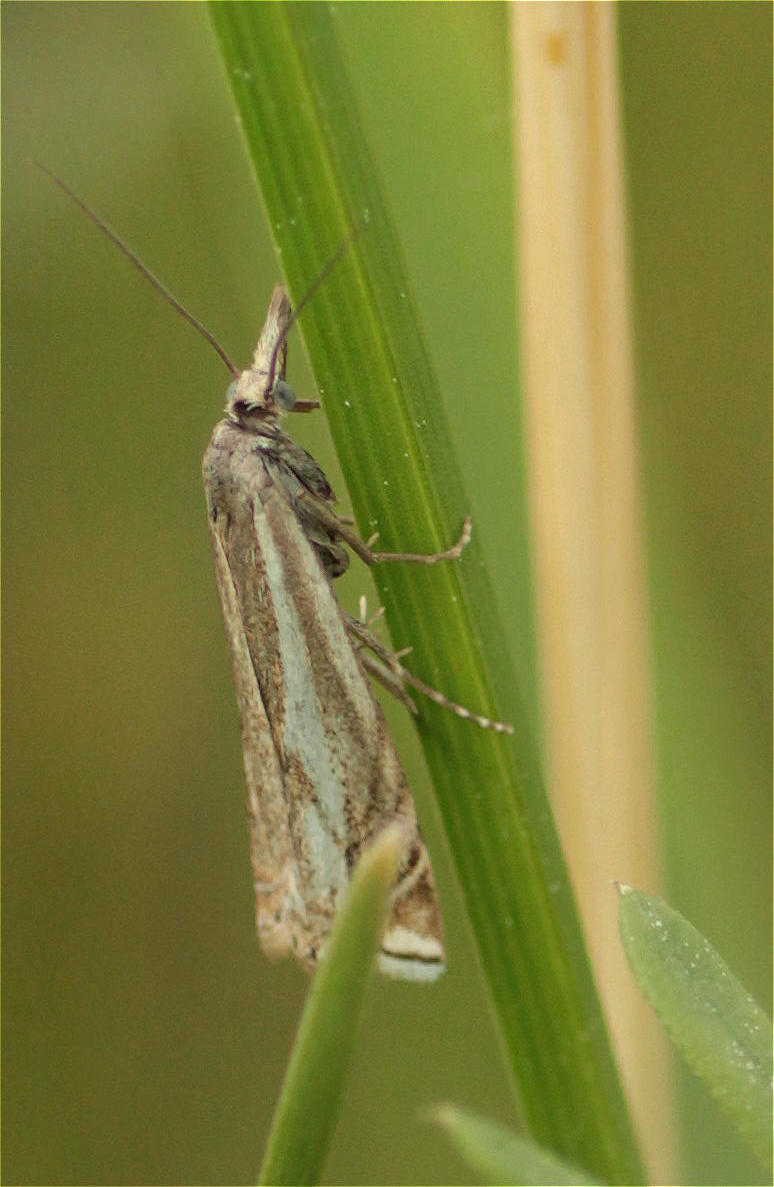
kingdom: Animalia
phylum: Arthropoda
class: Insecta
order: Lepidoptera
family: Crambidae
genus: Crambus
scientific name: Crambus nemorella
